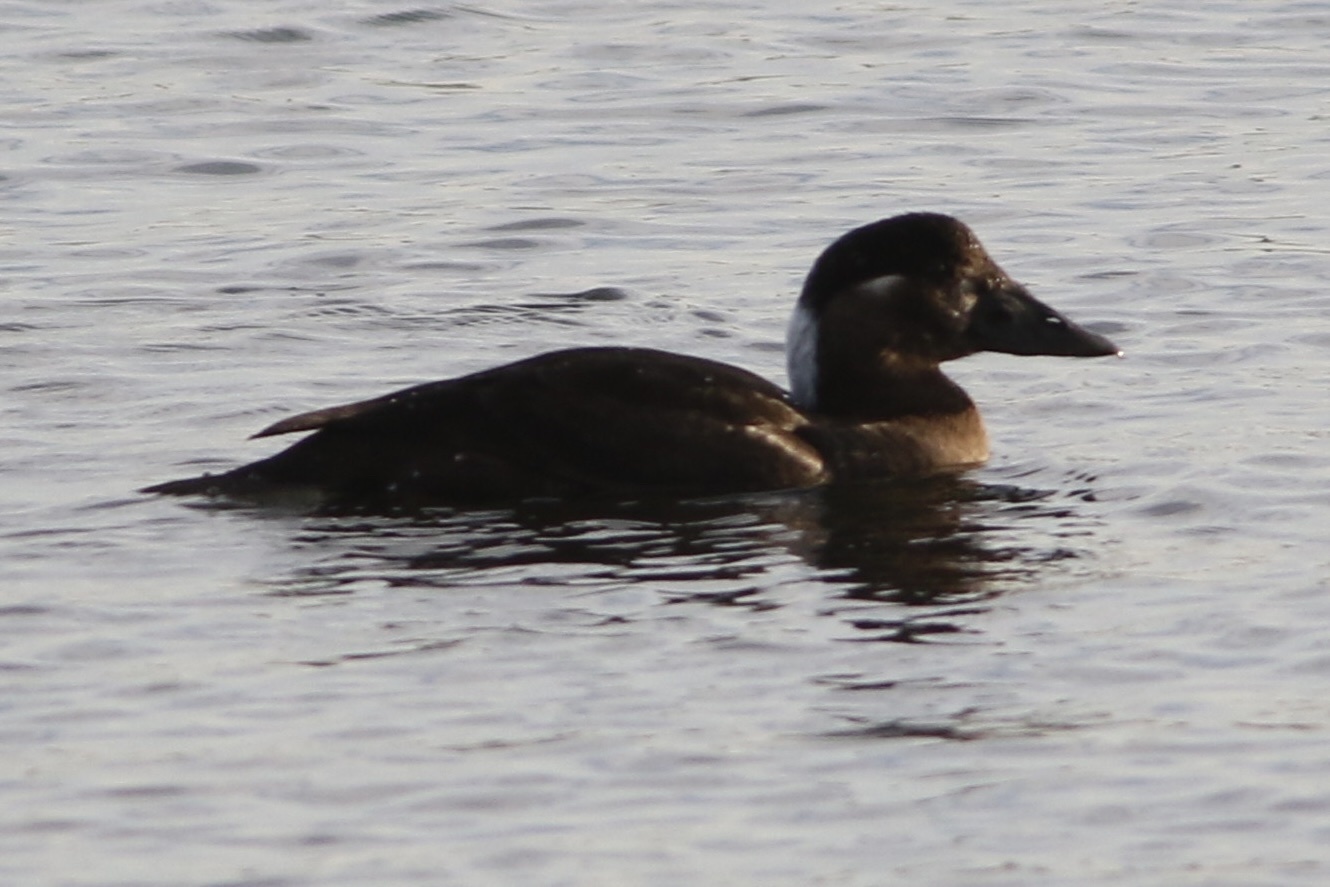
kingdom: Animalia
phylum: Chordata
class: Aves
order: Anseriformes
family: Anatidae
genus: Melanitta
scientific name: Melanitta perspicillata
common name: Surf scoter
